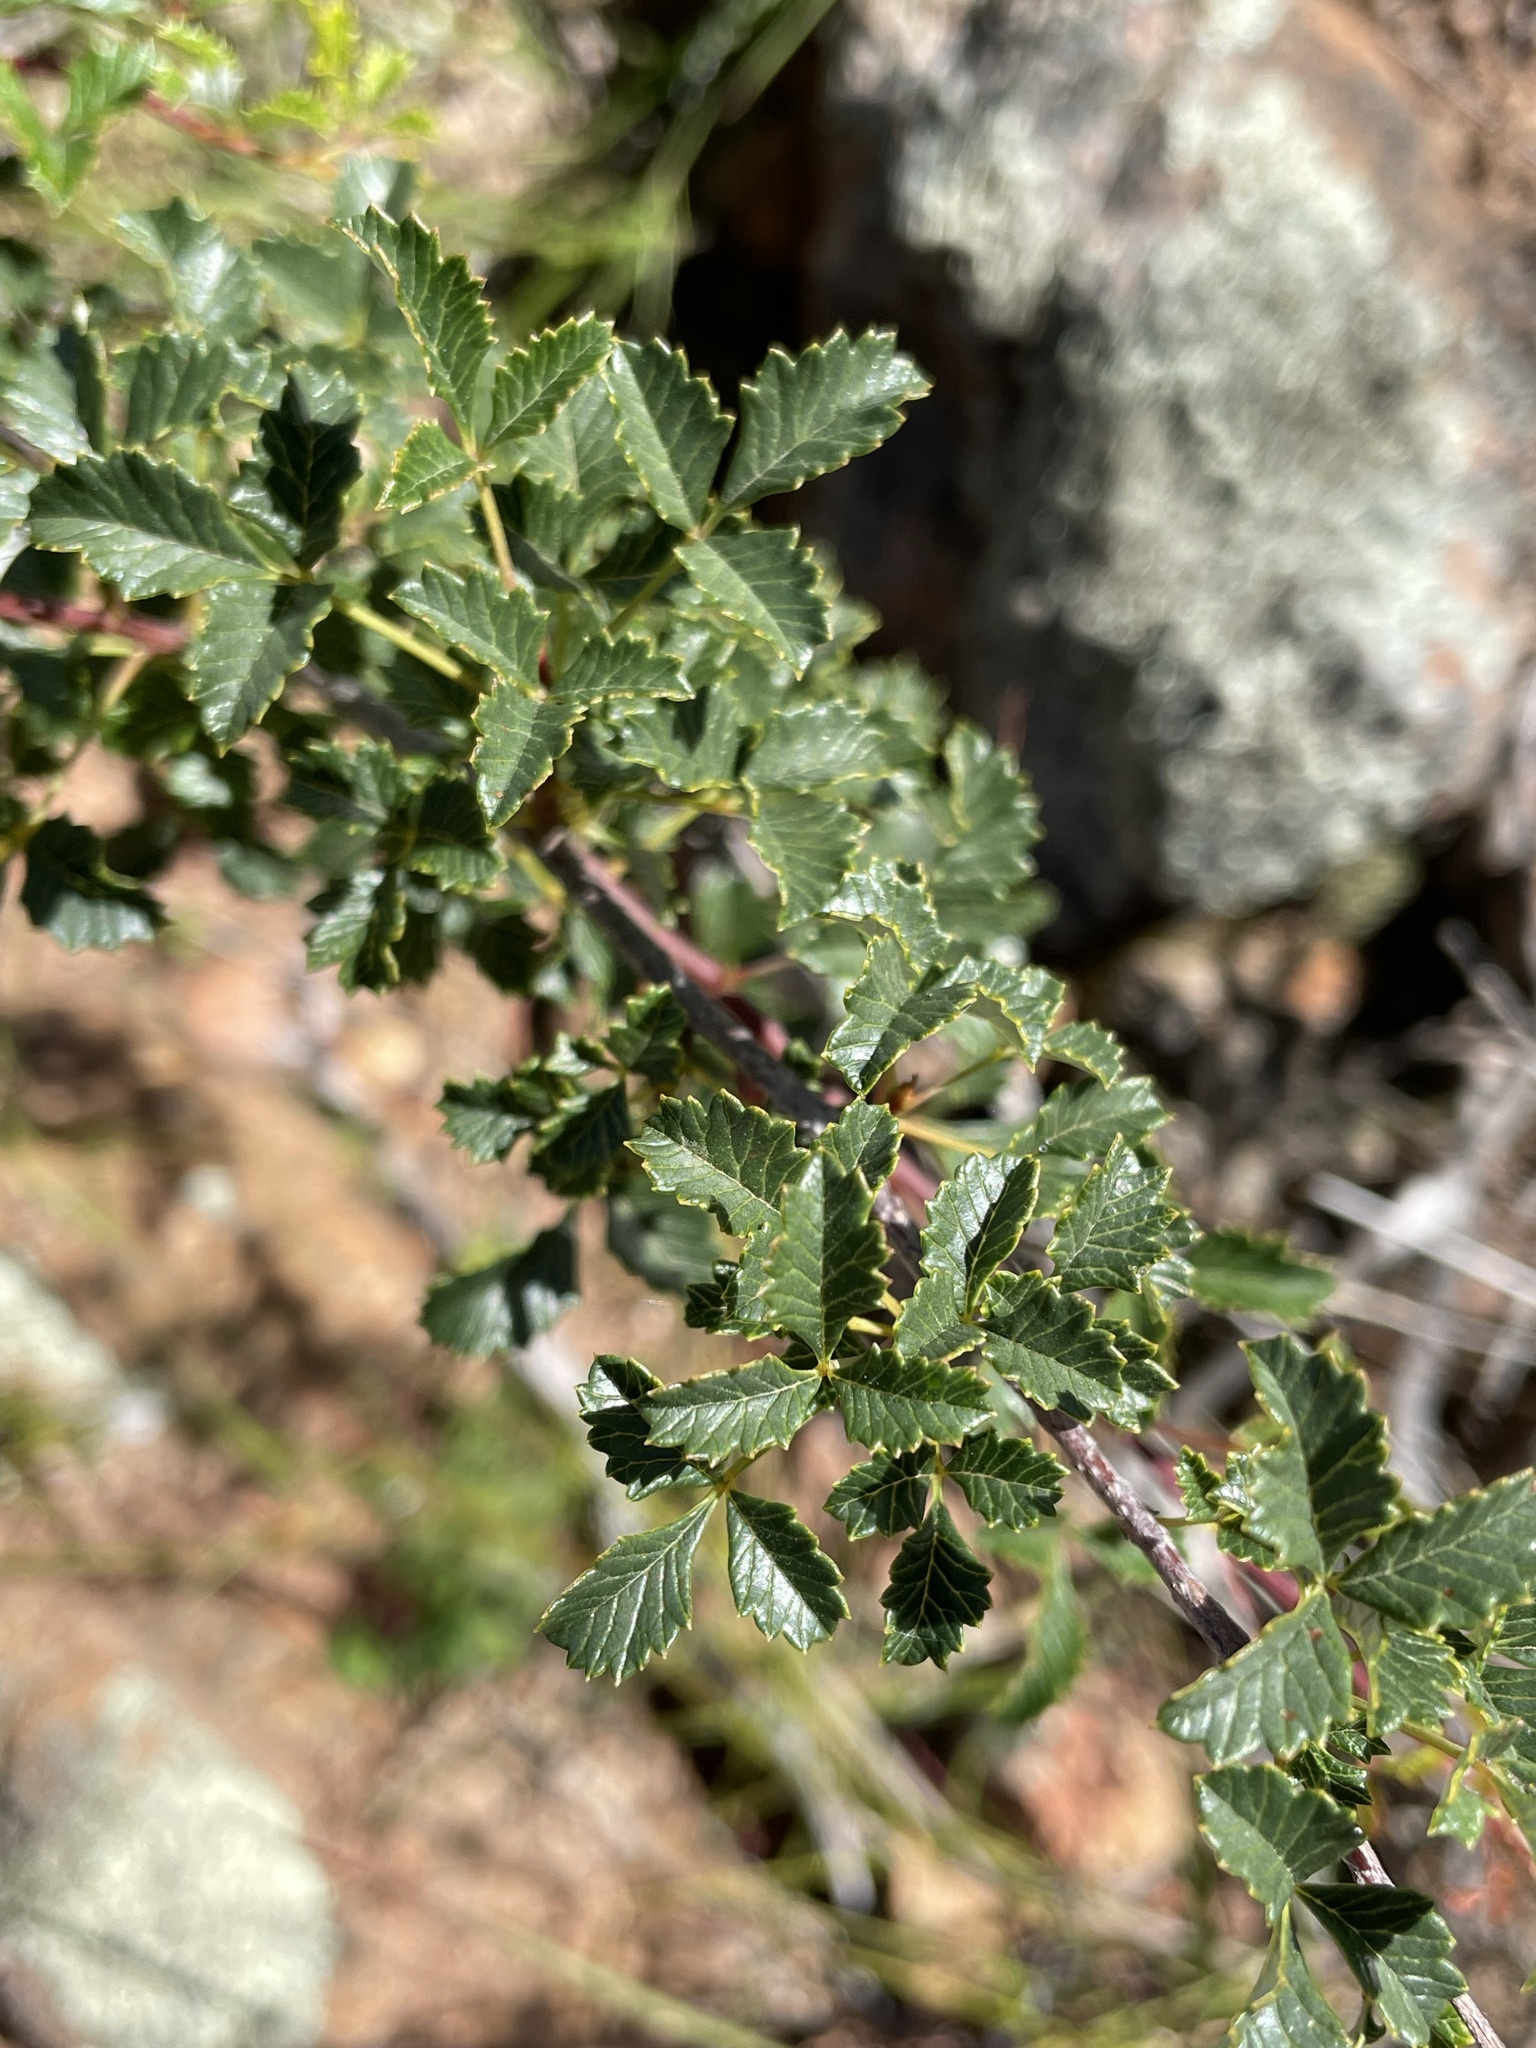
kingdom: Plantae
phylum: Tracheophyta
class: Magnoliopsida
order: Sapindales
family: Anacardiaceae
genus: Searsia
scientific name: Searsia dissecta
